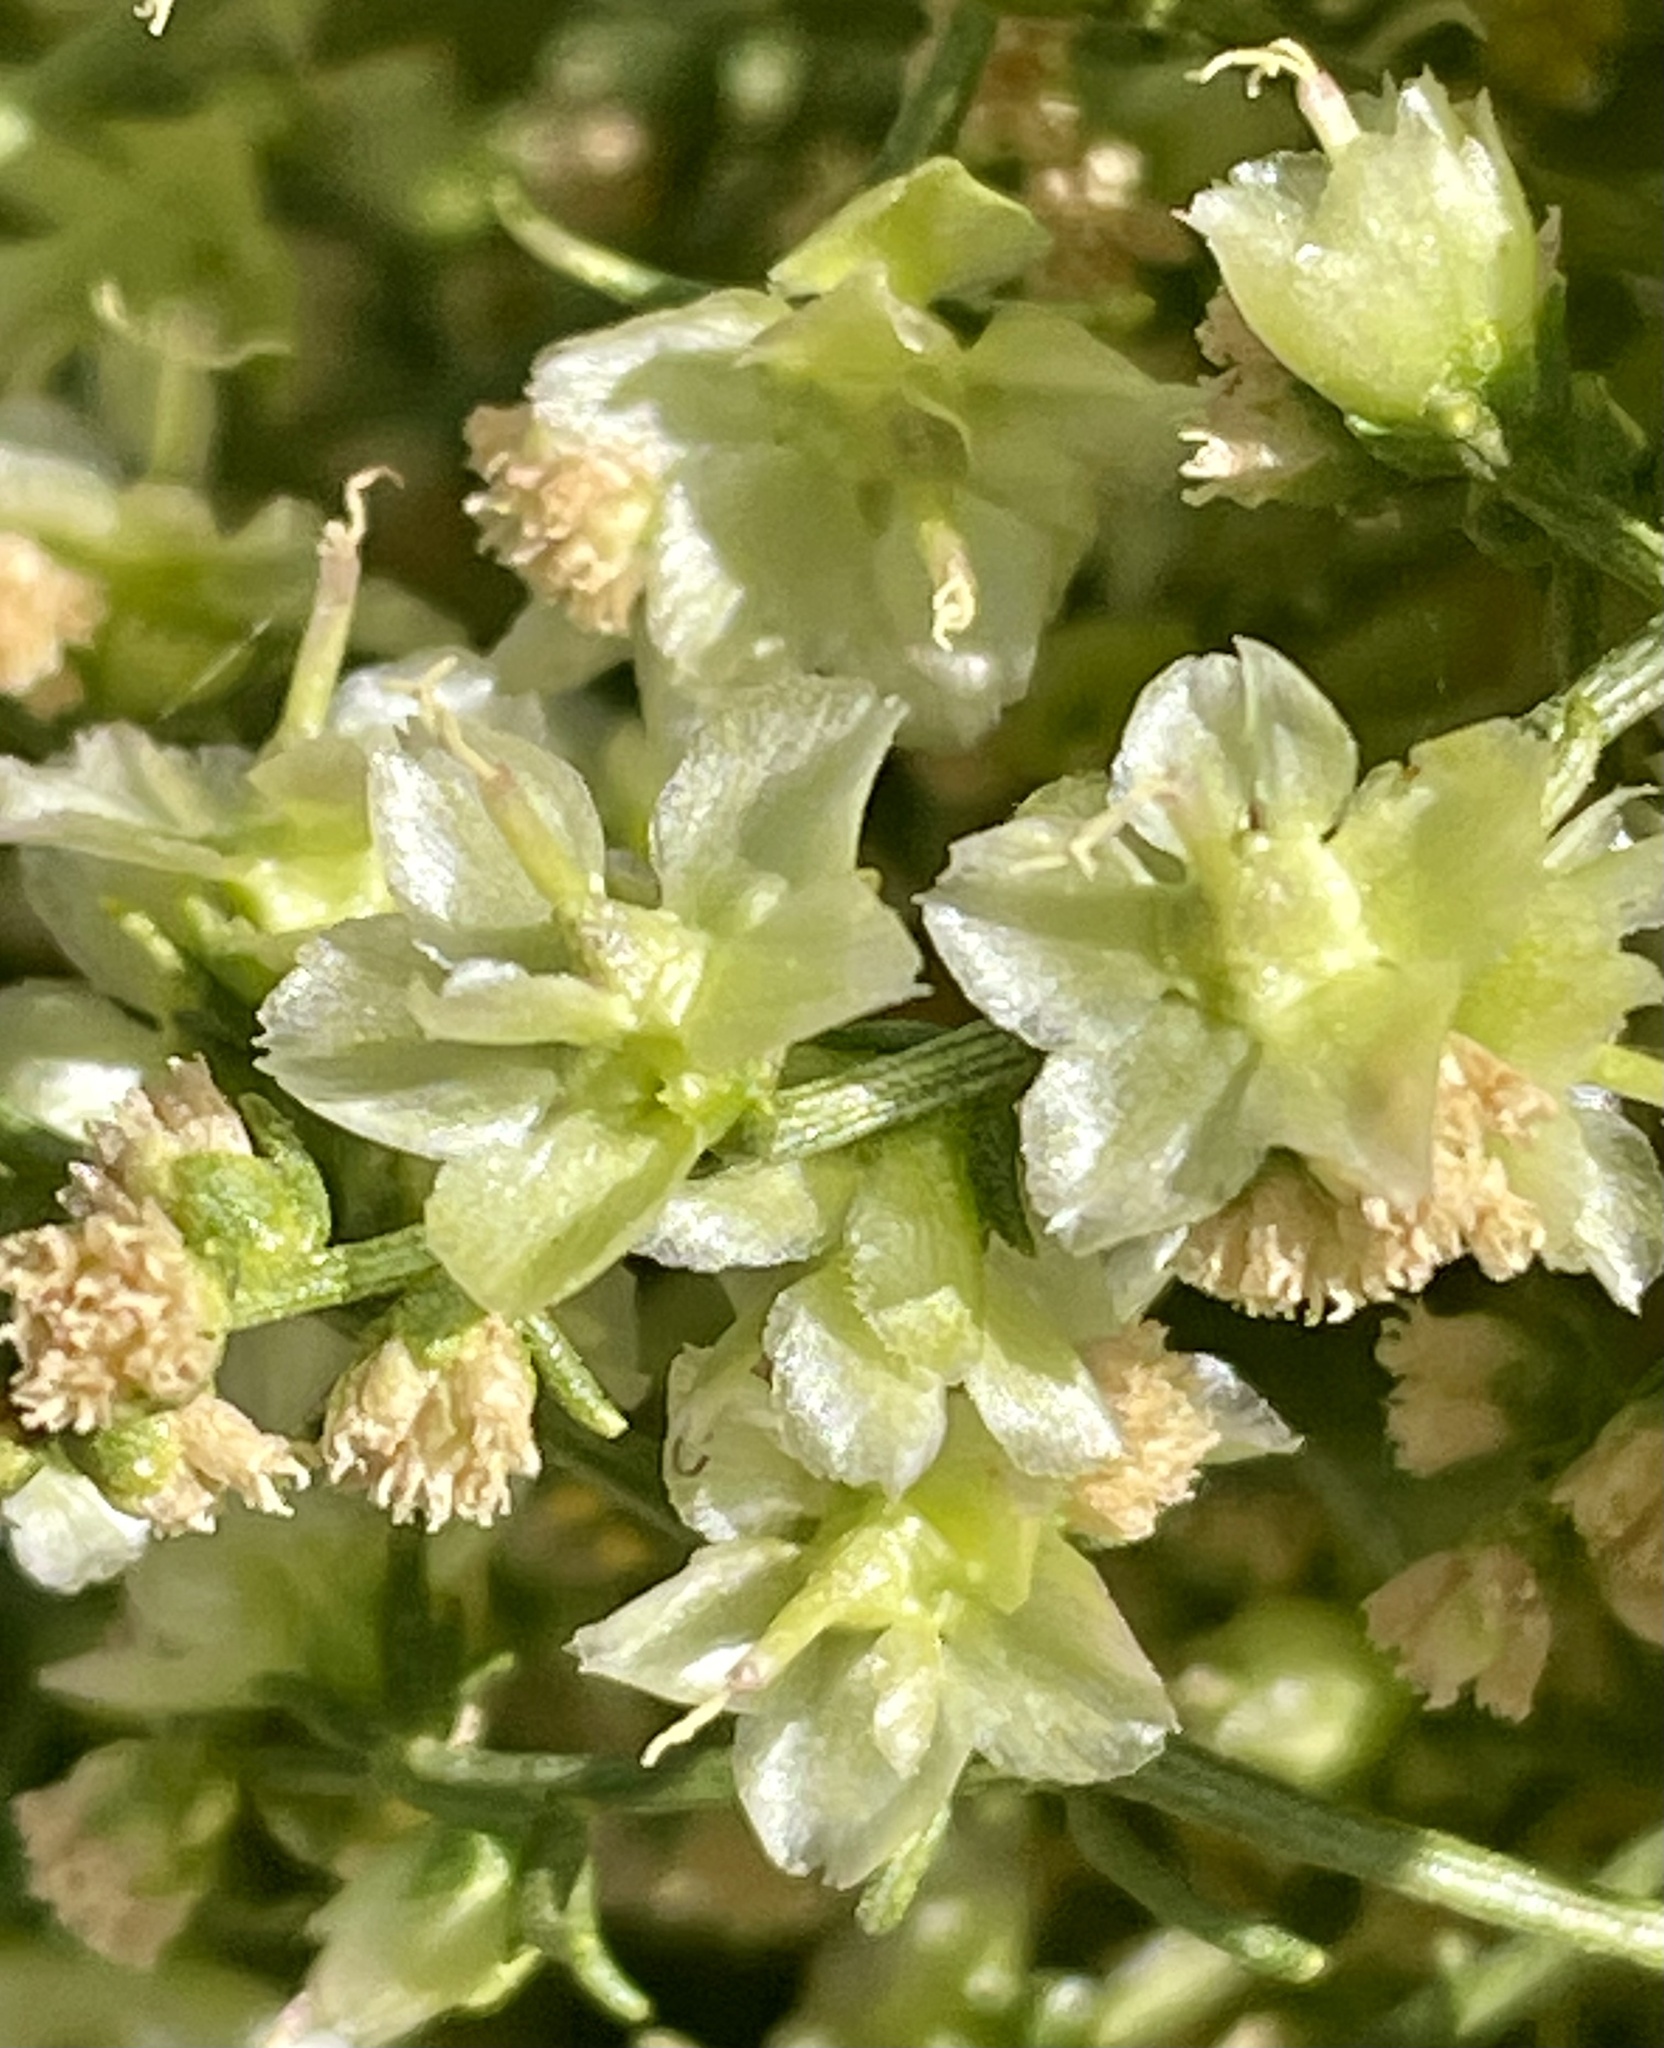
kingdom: Plantae
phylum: Tracheophyta
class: Magnoliopsida
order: Asterales
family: Asteraceae
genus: Ambrosia
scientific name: Ambrosia salsola
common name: Burrobrush
